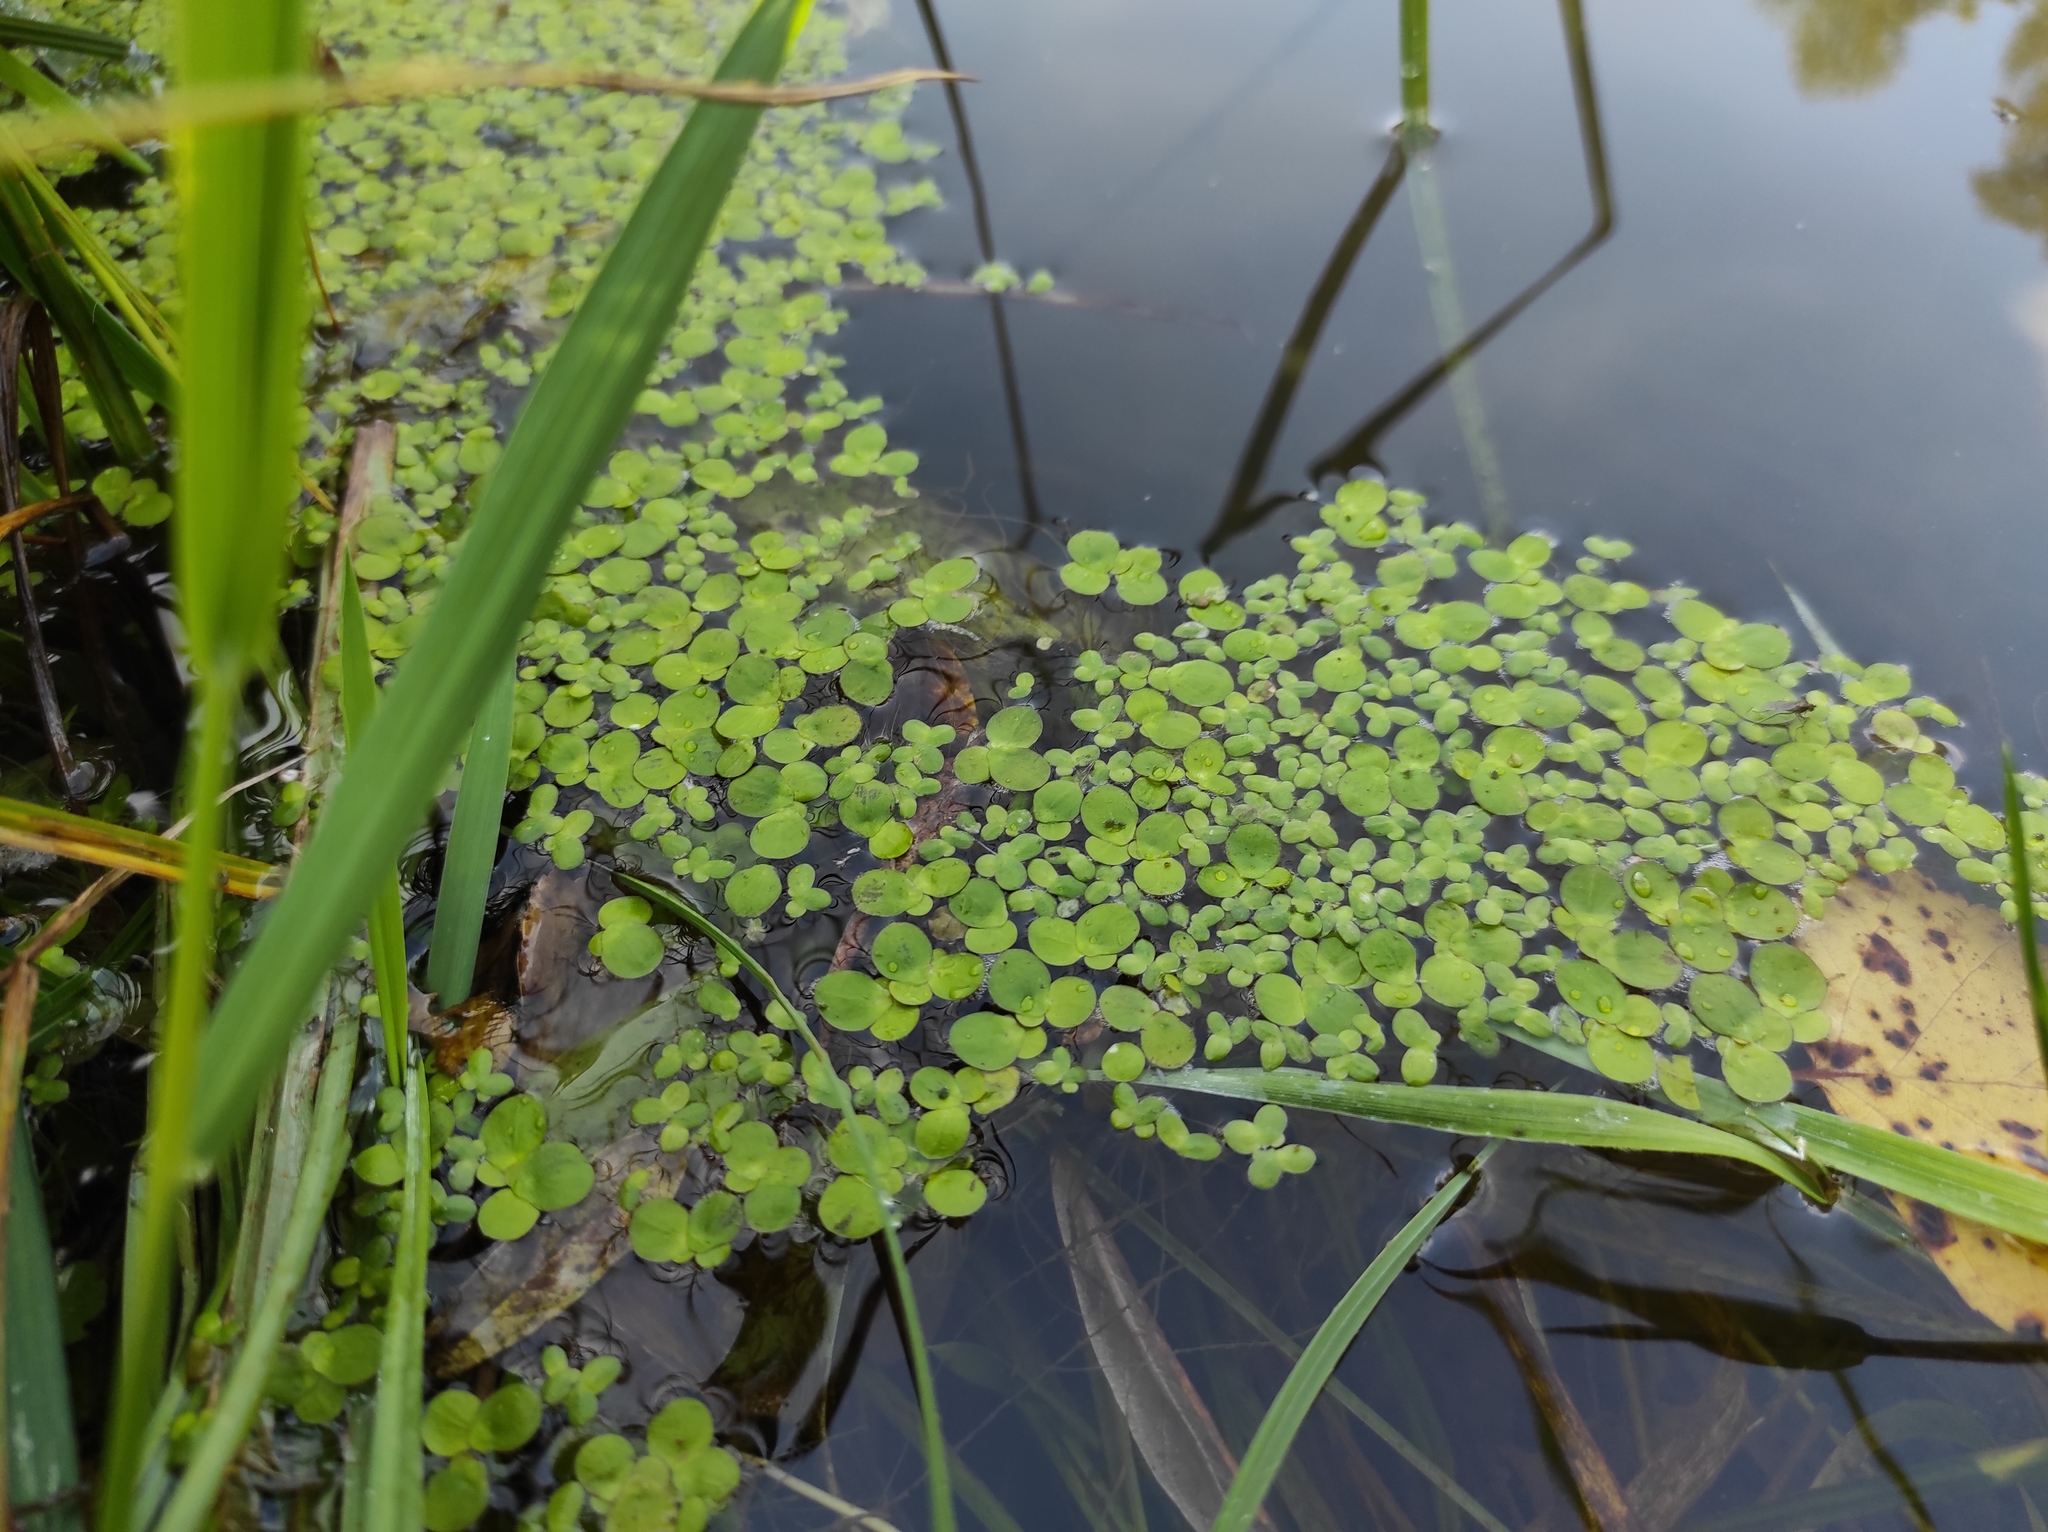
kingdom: Plantae
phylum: Tracheophyta
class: Liliopsida
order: Alismatales
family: Araceae
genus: Spirodela
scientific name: Spirodela polyrhiza
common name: Great duckweed
